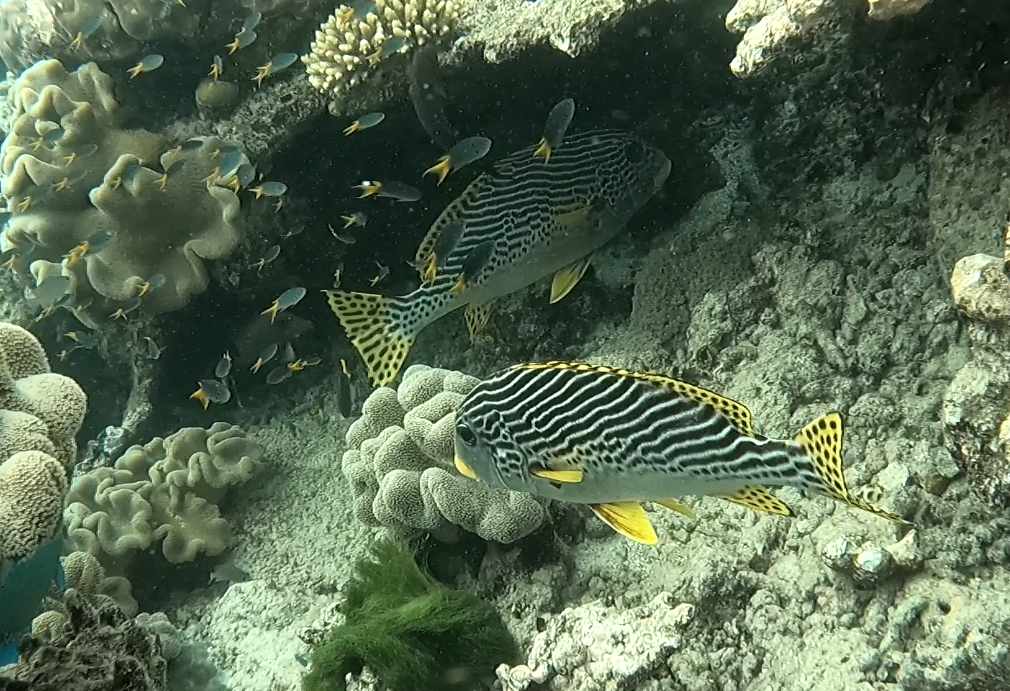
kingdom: Animalia
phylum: Chordata
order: Perciformes
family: Haemulidae
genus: Plectorhinchus
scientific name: Plectorhinchus lineatus
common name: Goldman's sweetlips
